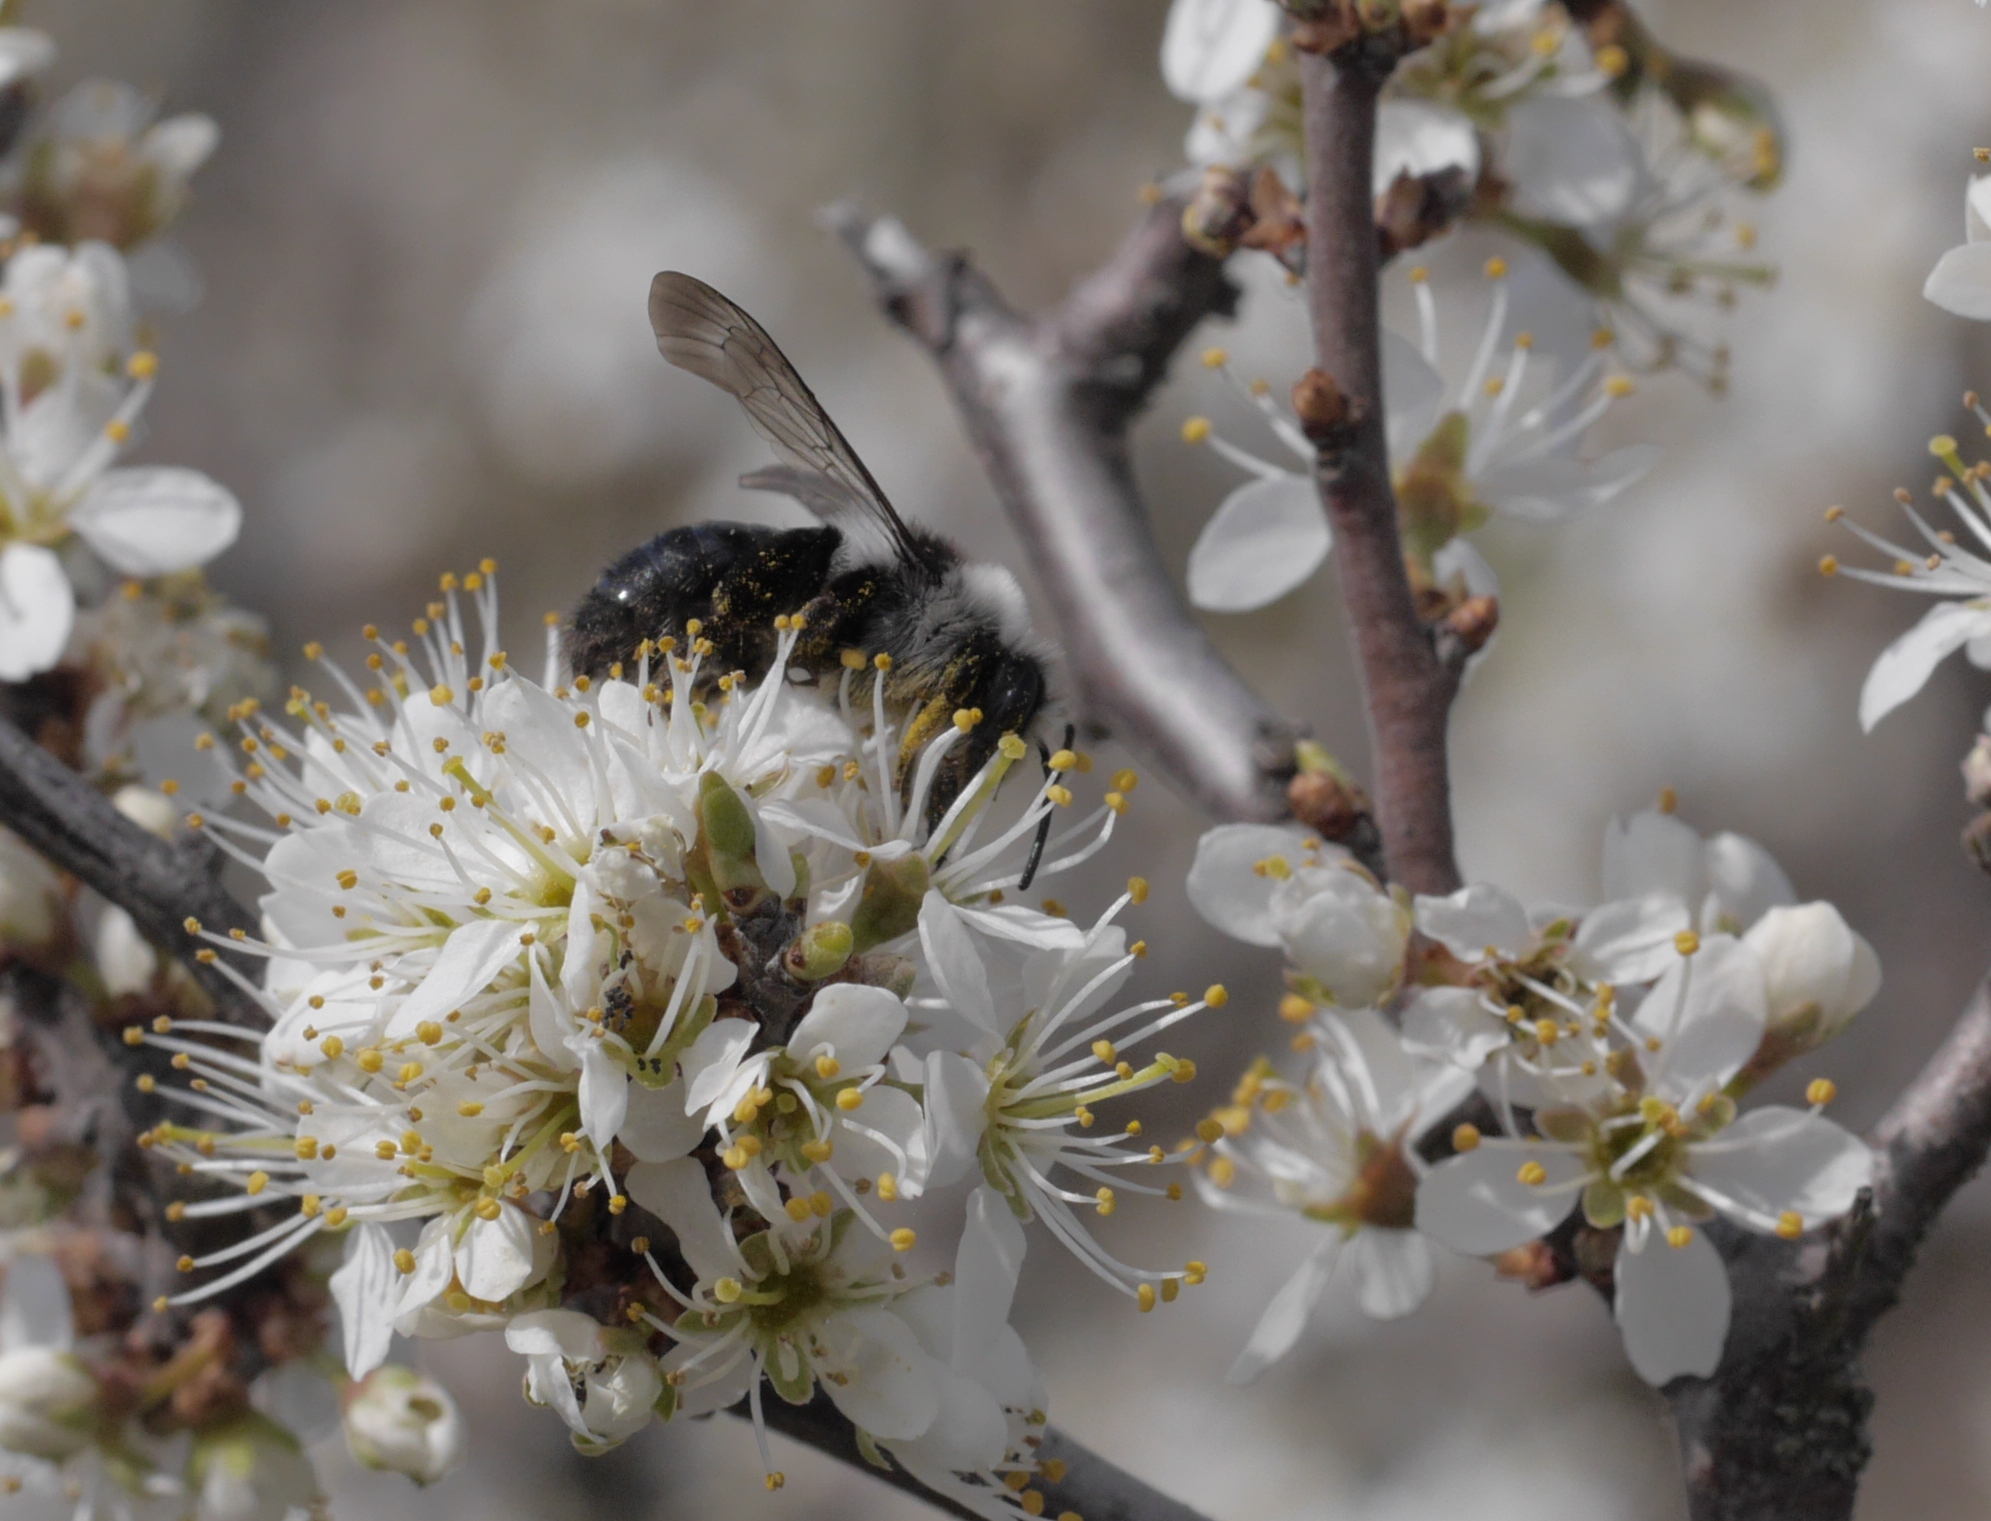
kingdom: Animalia
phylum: Arthropoda
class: Insecta
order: Hymenoptera
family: Andrenidae
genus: Andrena
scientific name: Andrena cineraria
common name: Ashy mining bee
